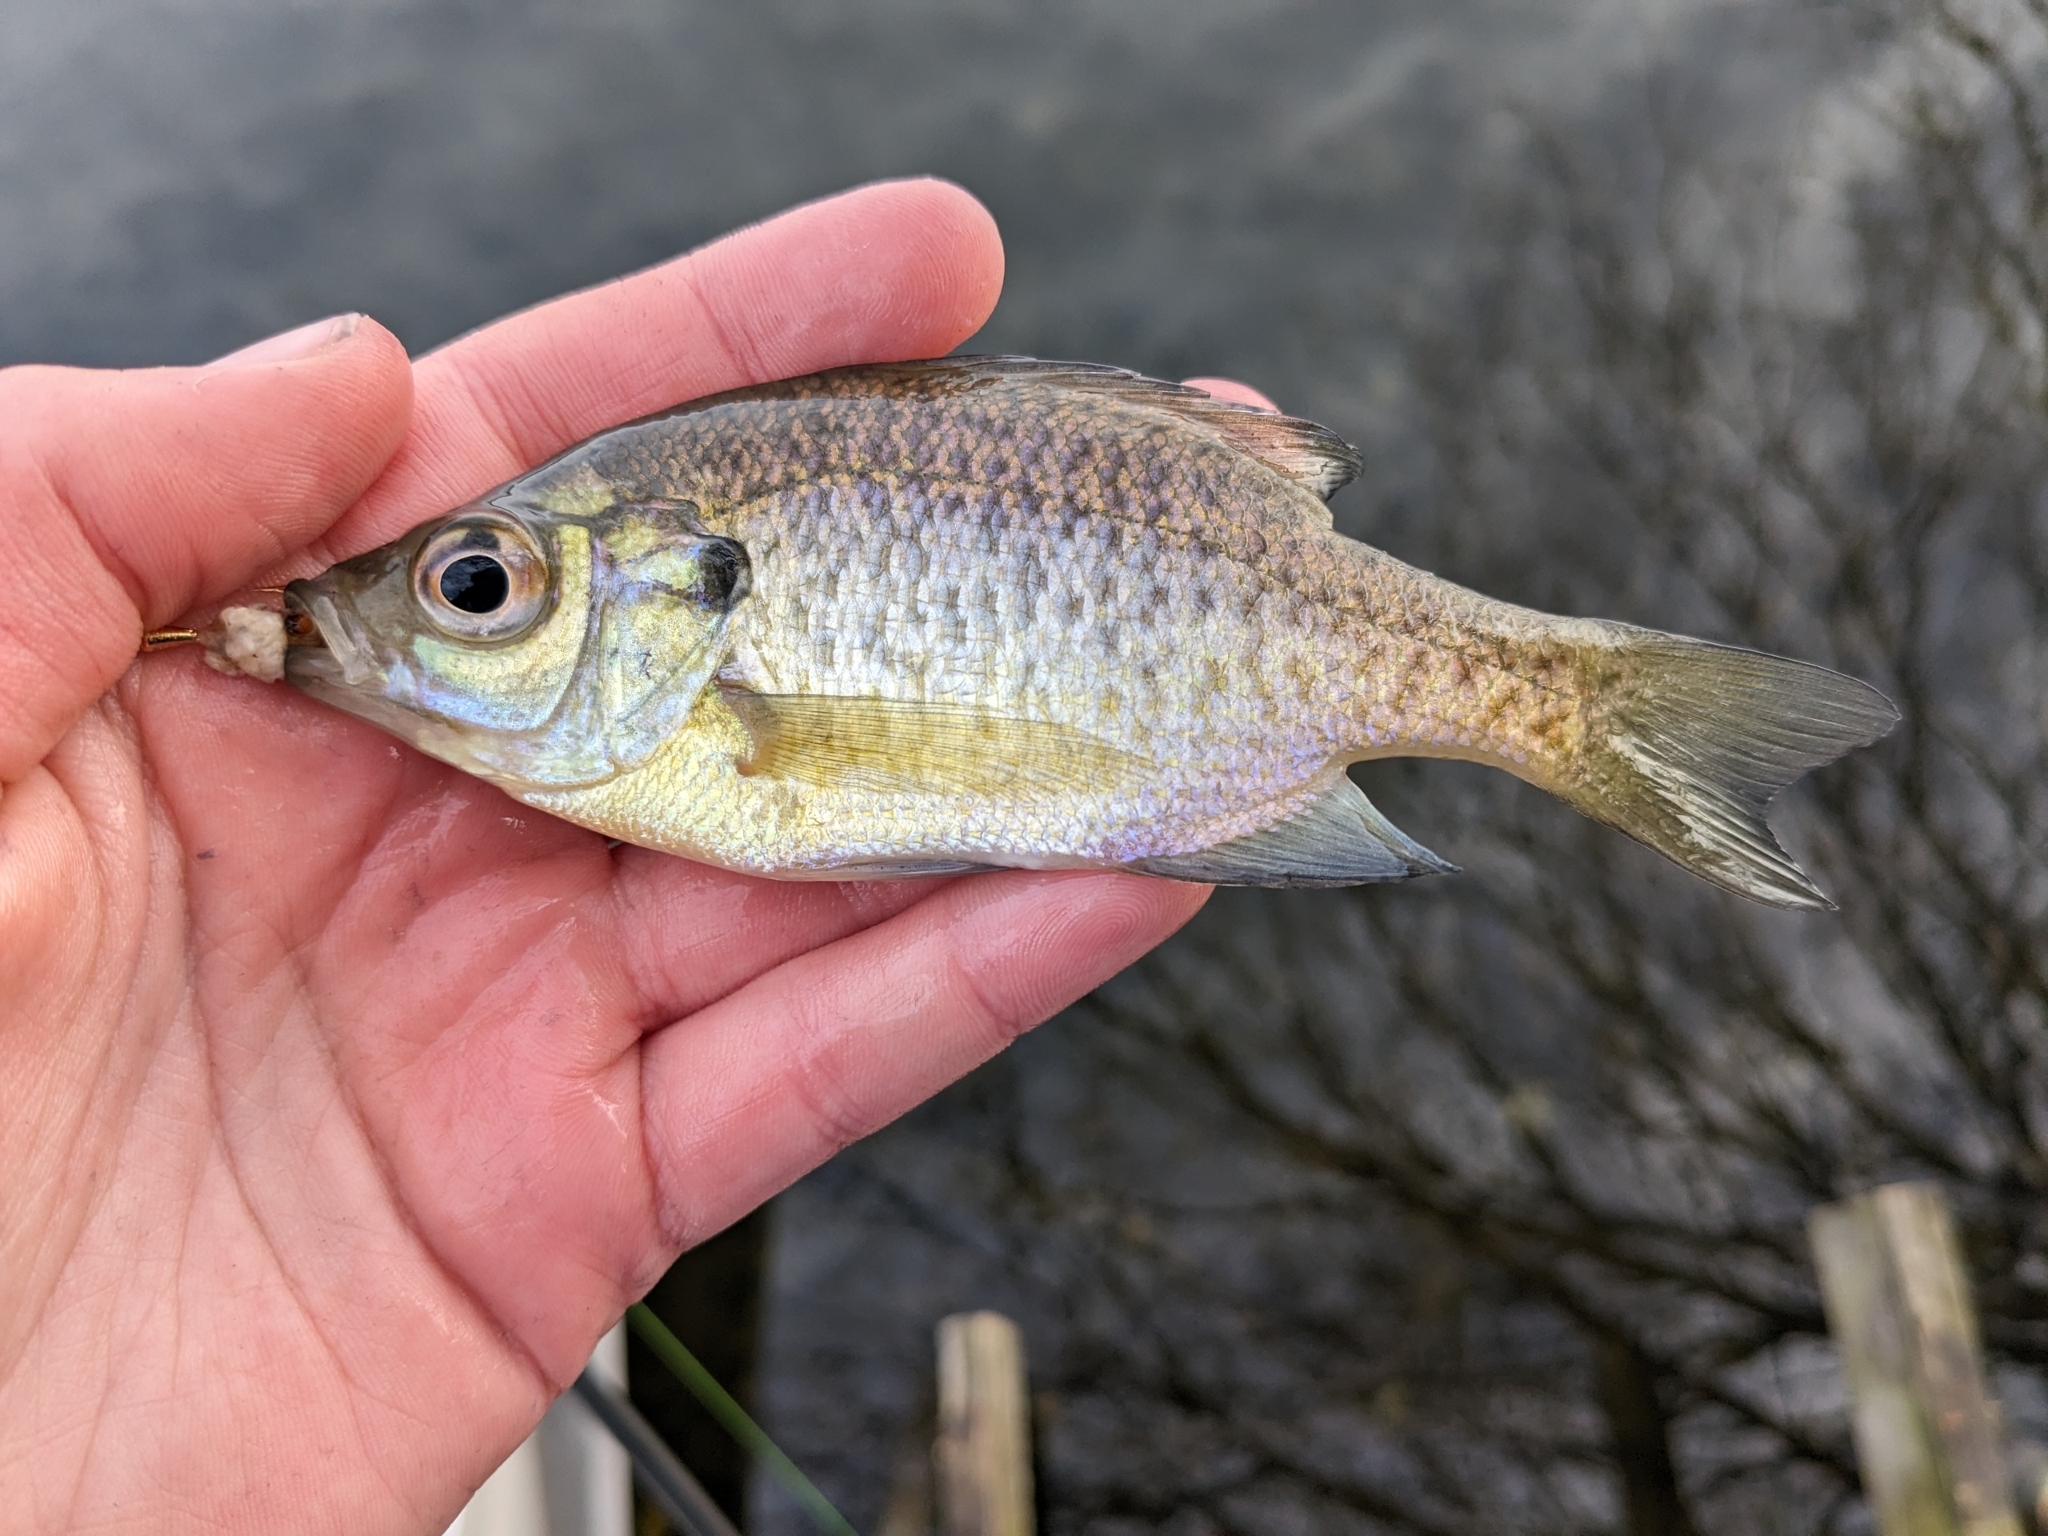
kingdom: Animalia
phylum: Chordata
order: Perciformes
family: Centrarchidae
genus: Lepomis
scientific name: Lepomis macrochirus
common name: Bluegill
